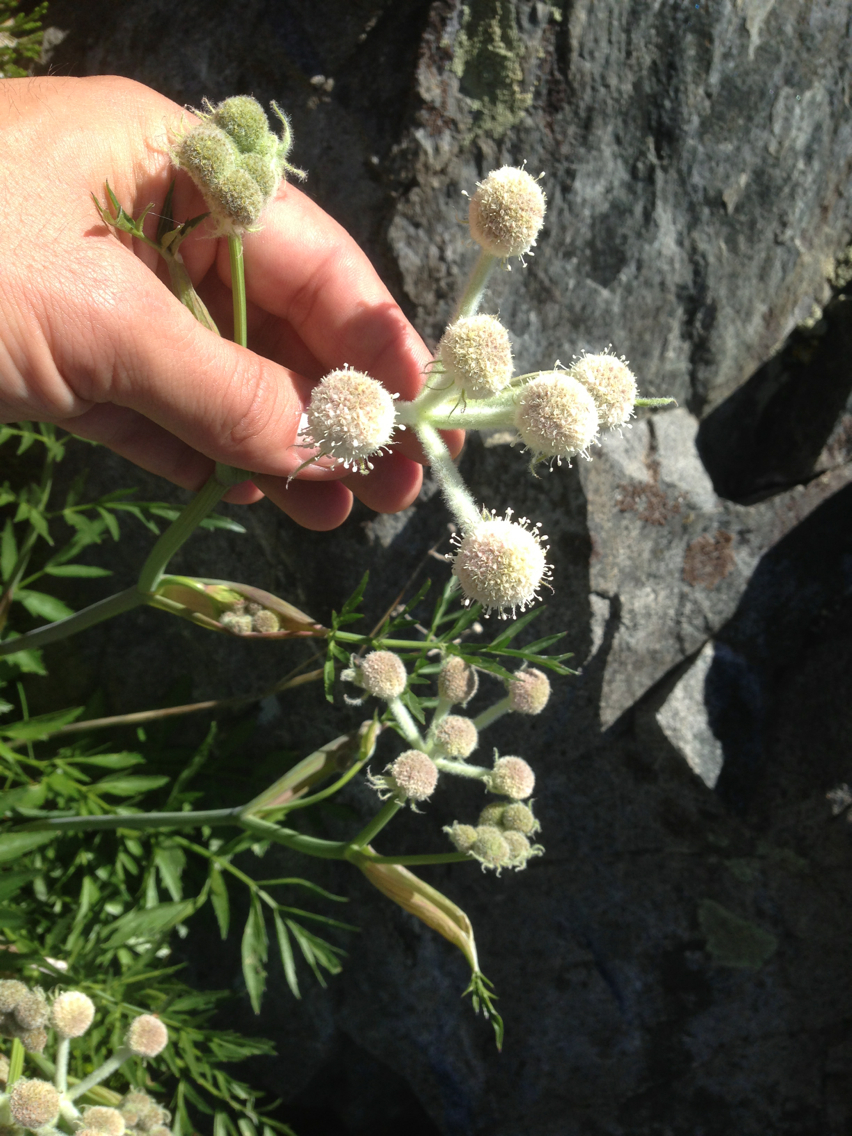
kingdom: Plantae
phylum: Tracheophyta
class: Magnoliopsida
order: Apiales
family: Apiaceae
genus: Angelica
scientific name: Angelica capitellata
